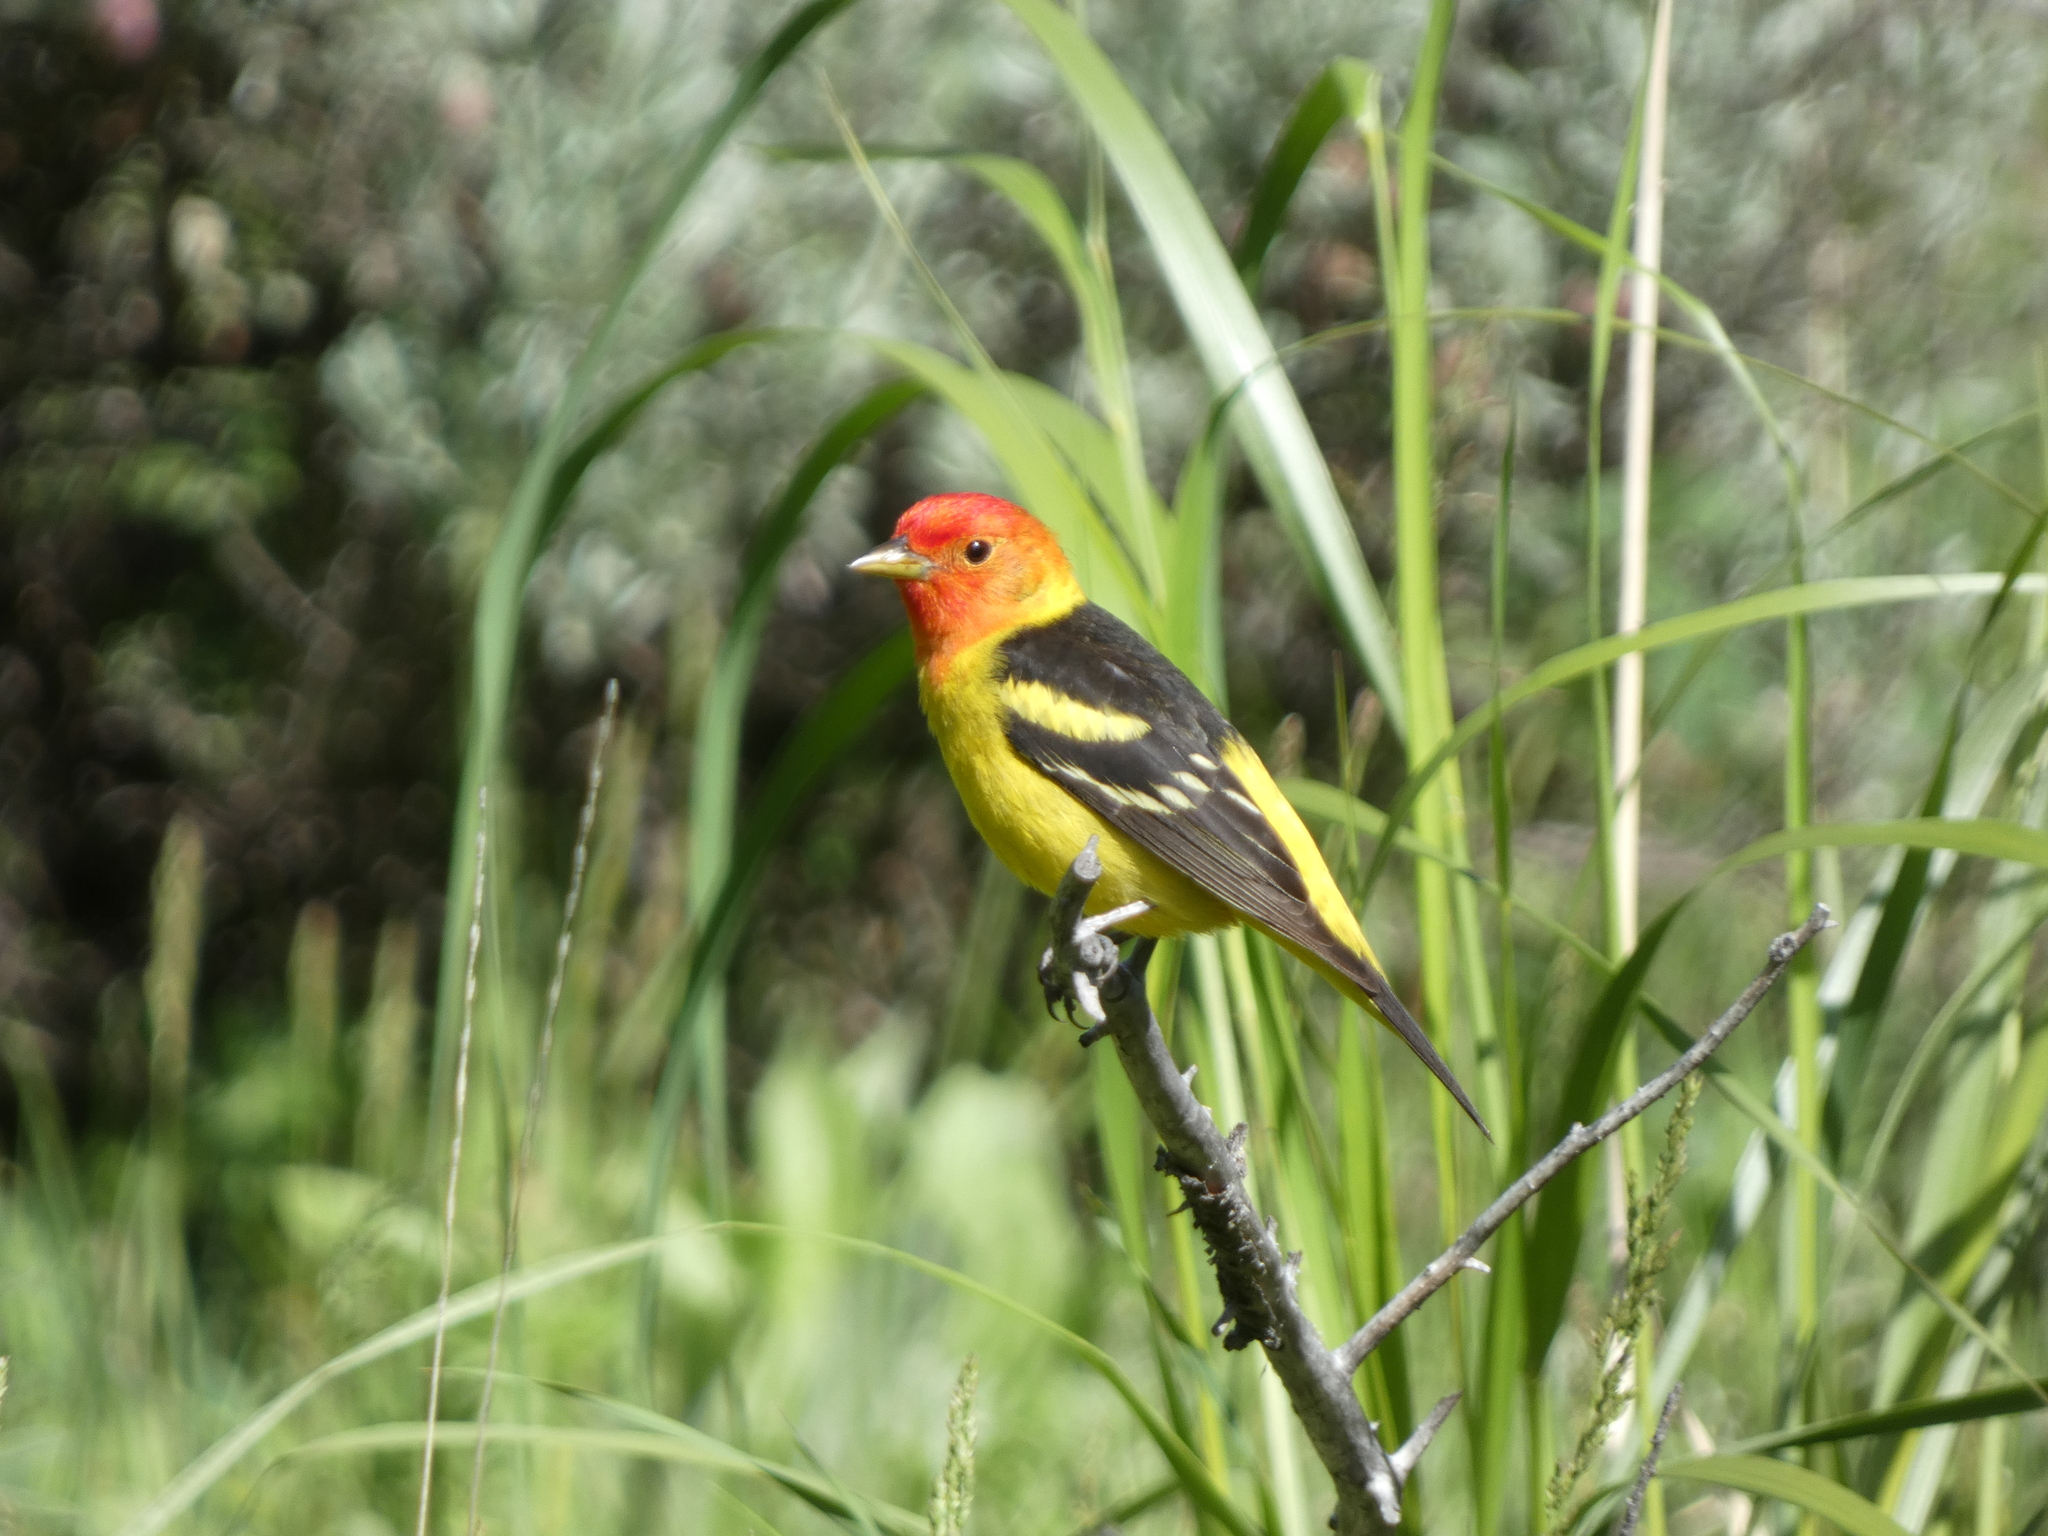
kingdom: Animalia
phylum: Chordata
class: Aves
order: Passeriformes
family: Cardinalidae
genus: Piranga
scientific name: Piranga ludoviciana
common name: Western tanager
